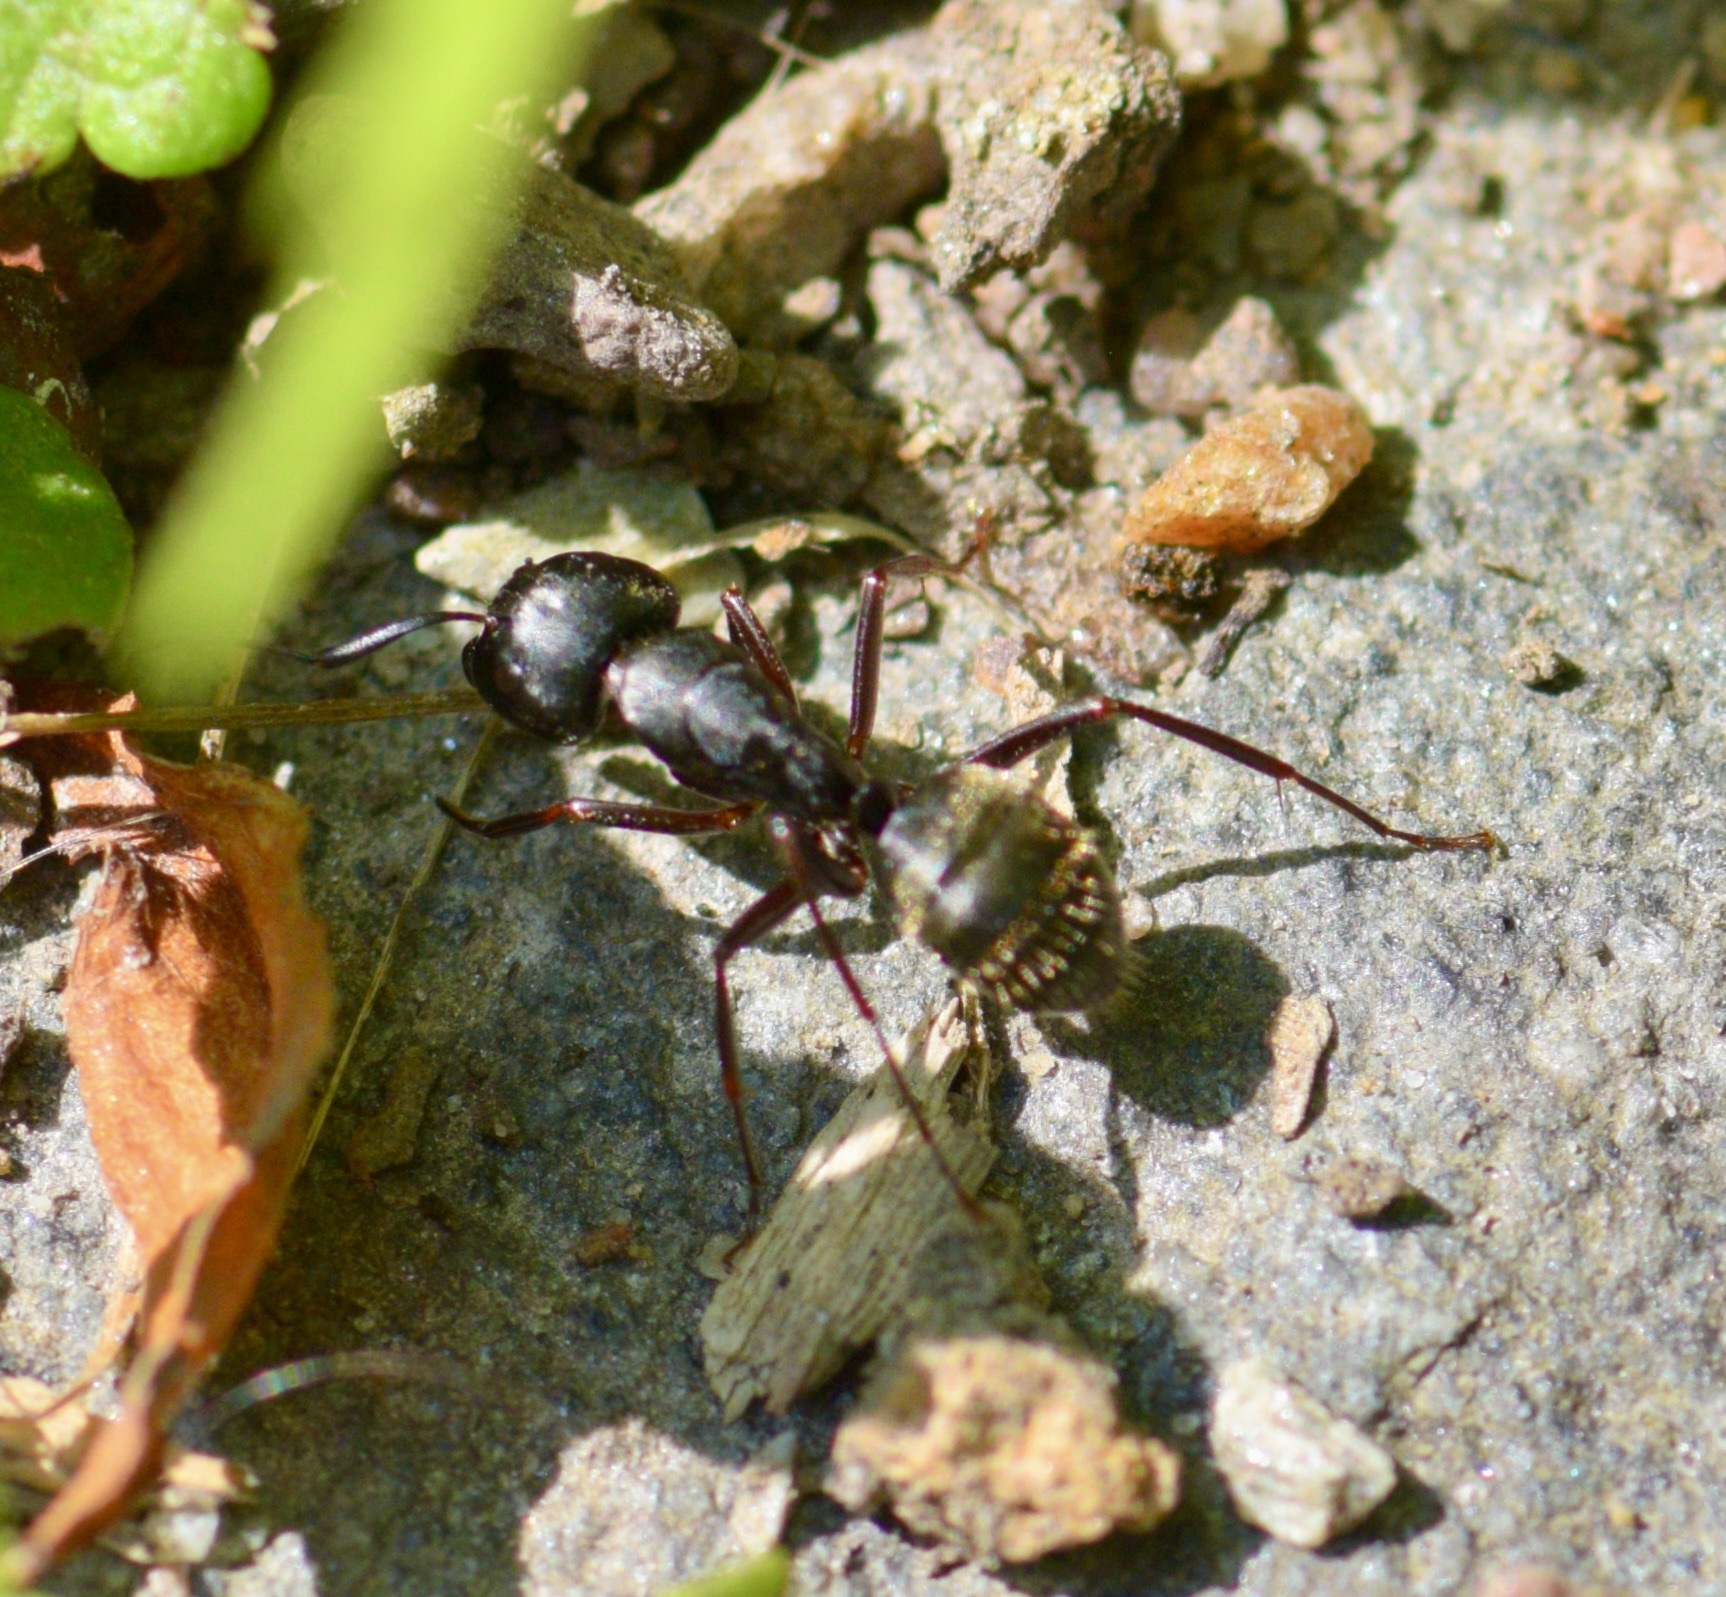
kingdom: Animalia
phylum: Arthropoda
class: Insecta
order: Hymenoptera
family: Formicidae
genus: Camponotus
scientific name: Camponotus pennsylvanicus
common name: Black carpenter ant
